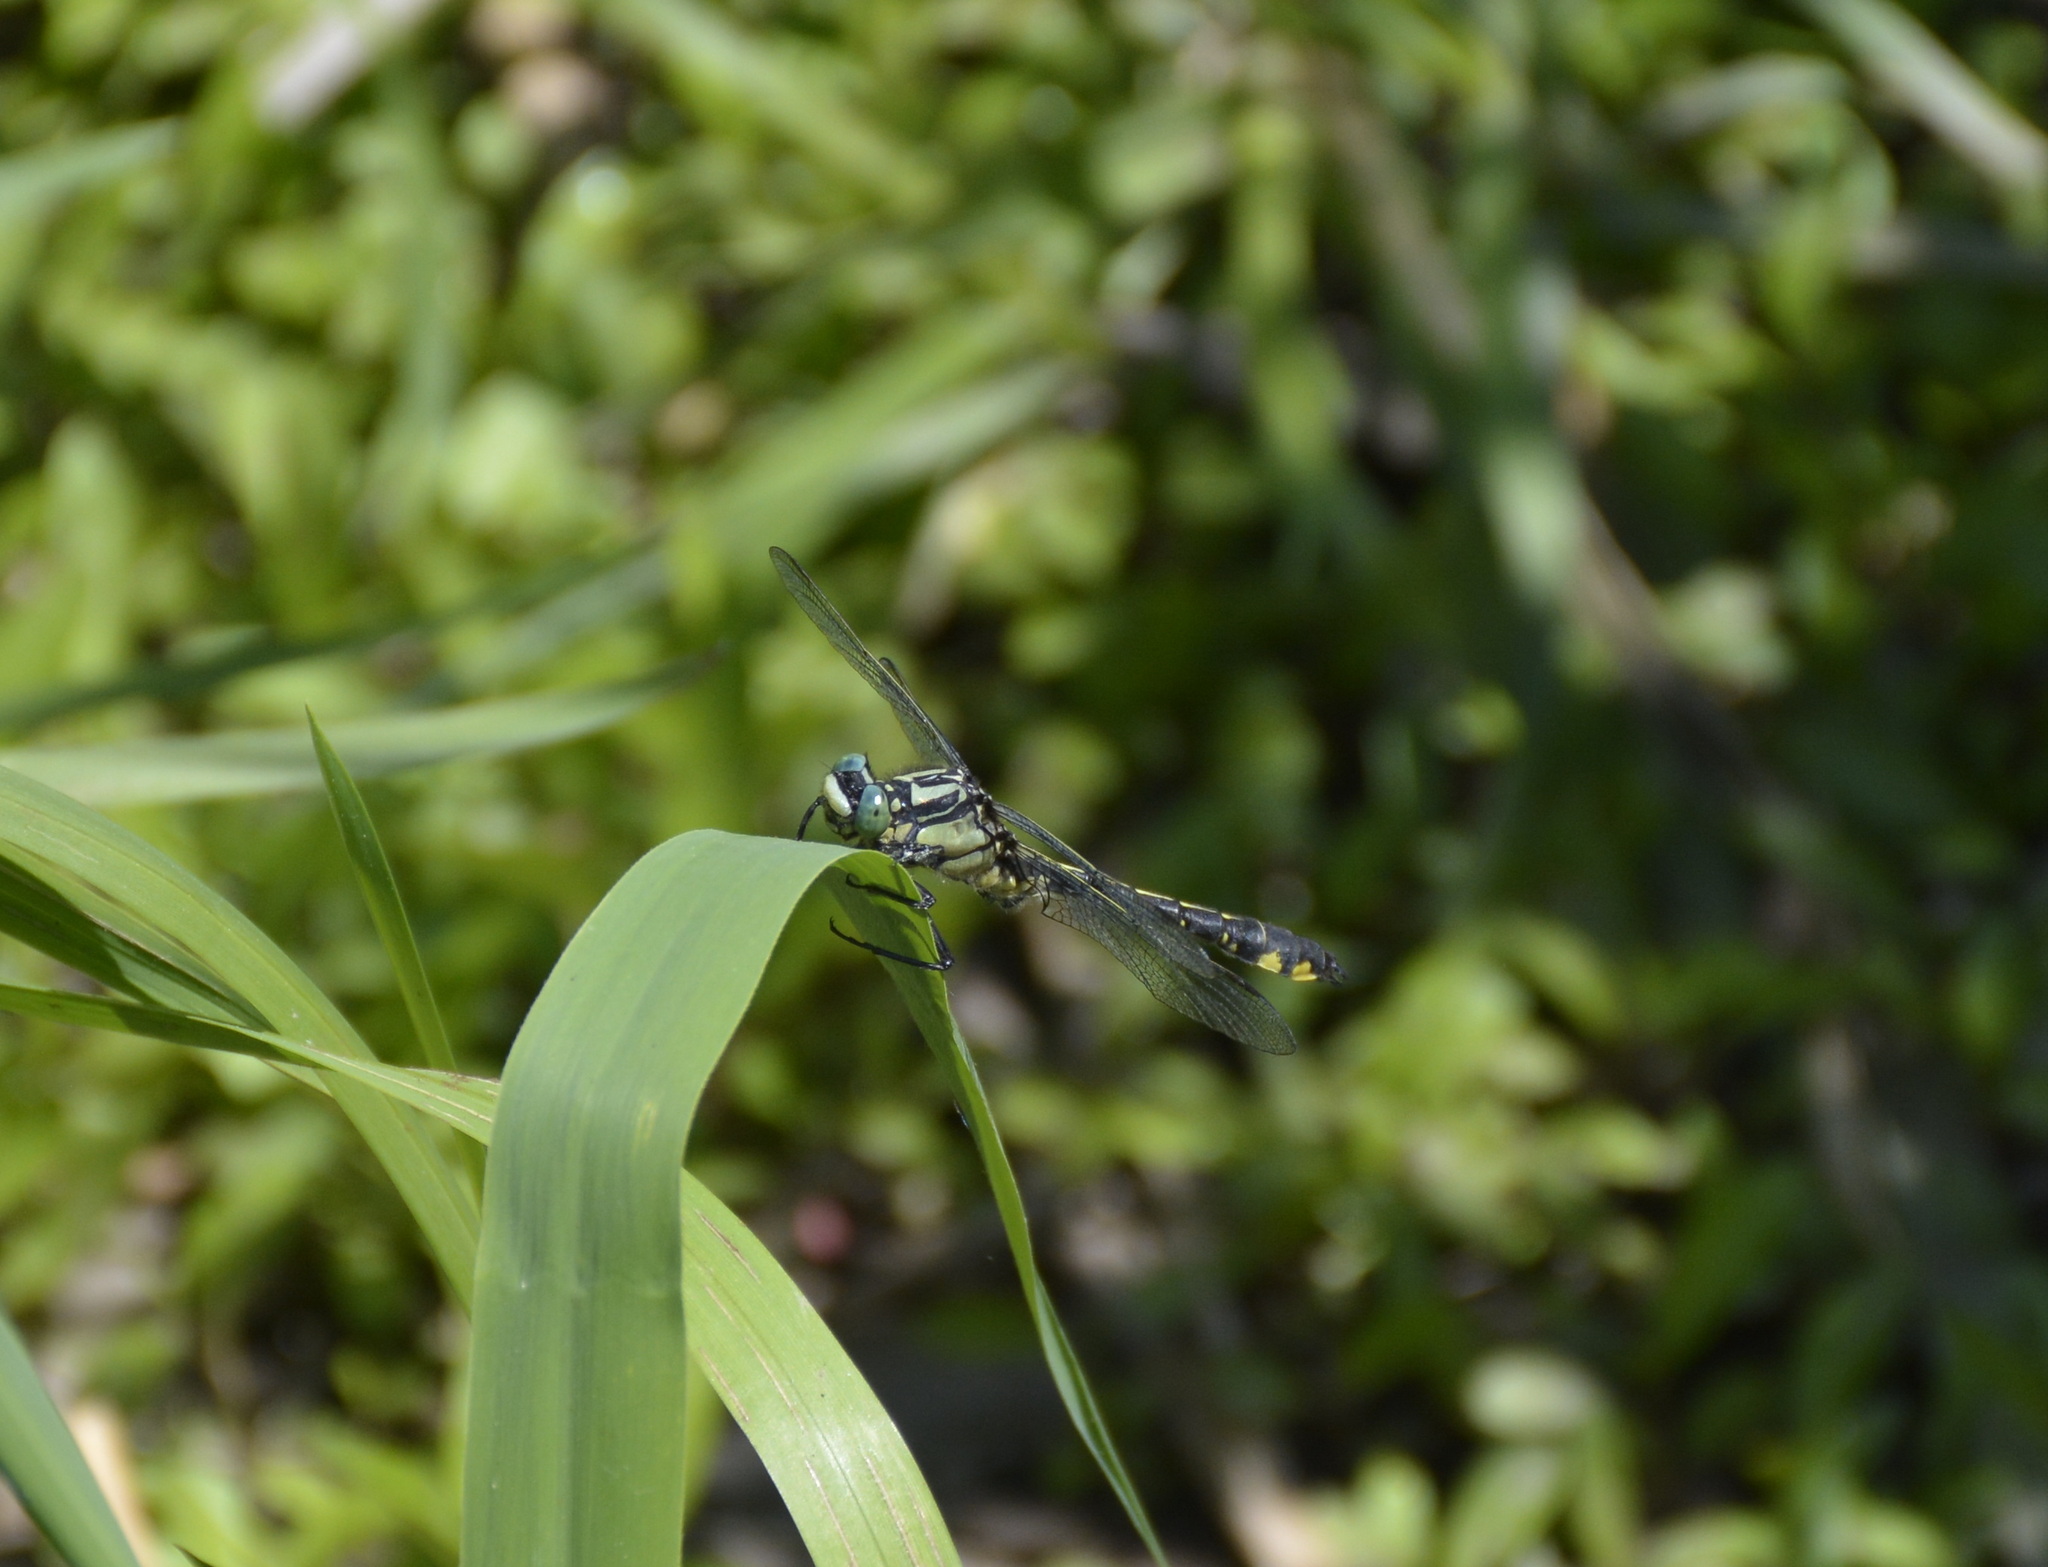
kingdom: Animalia
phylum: Arthropoda
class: Insecta
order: Odonata
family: Gomphidae
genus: Gomphus
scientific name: Gomphus vulgatissimus
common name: Club-tailed dragonfly
